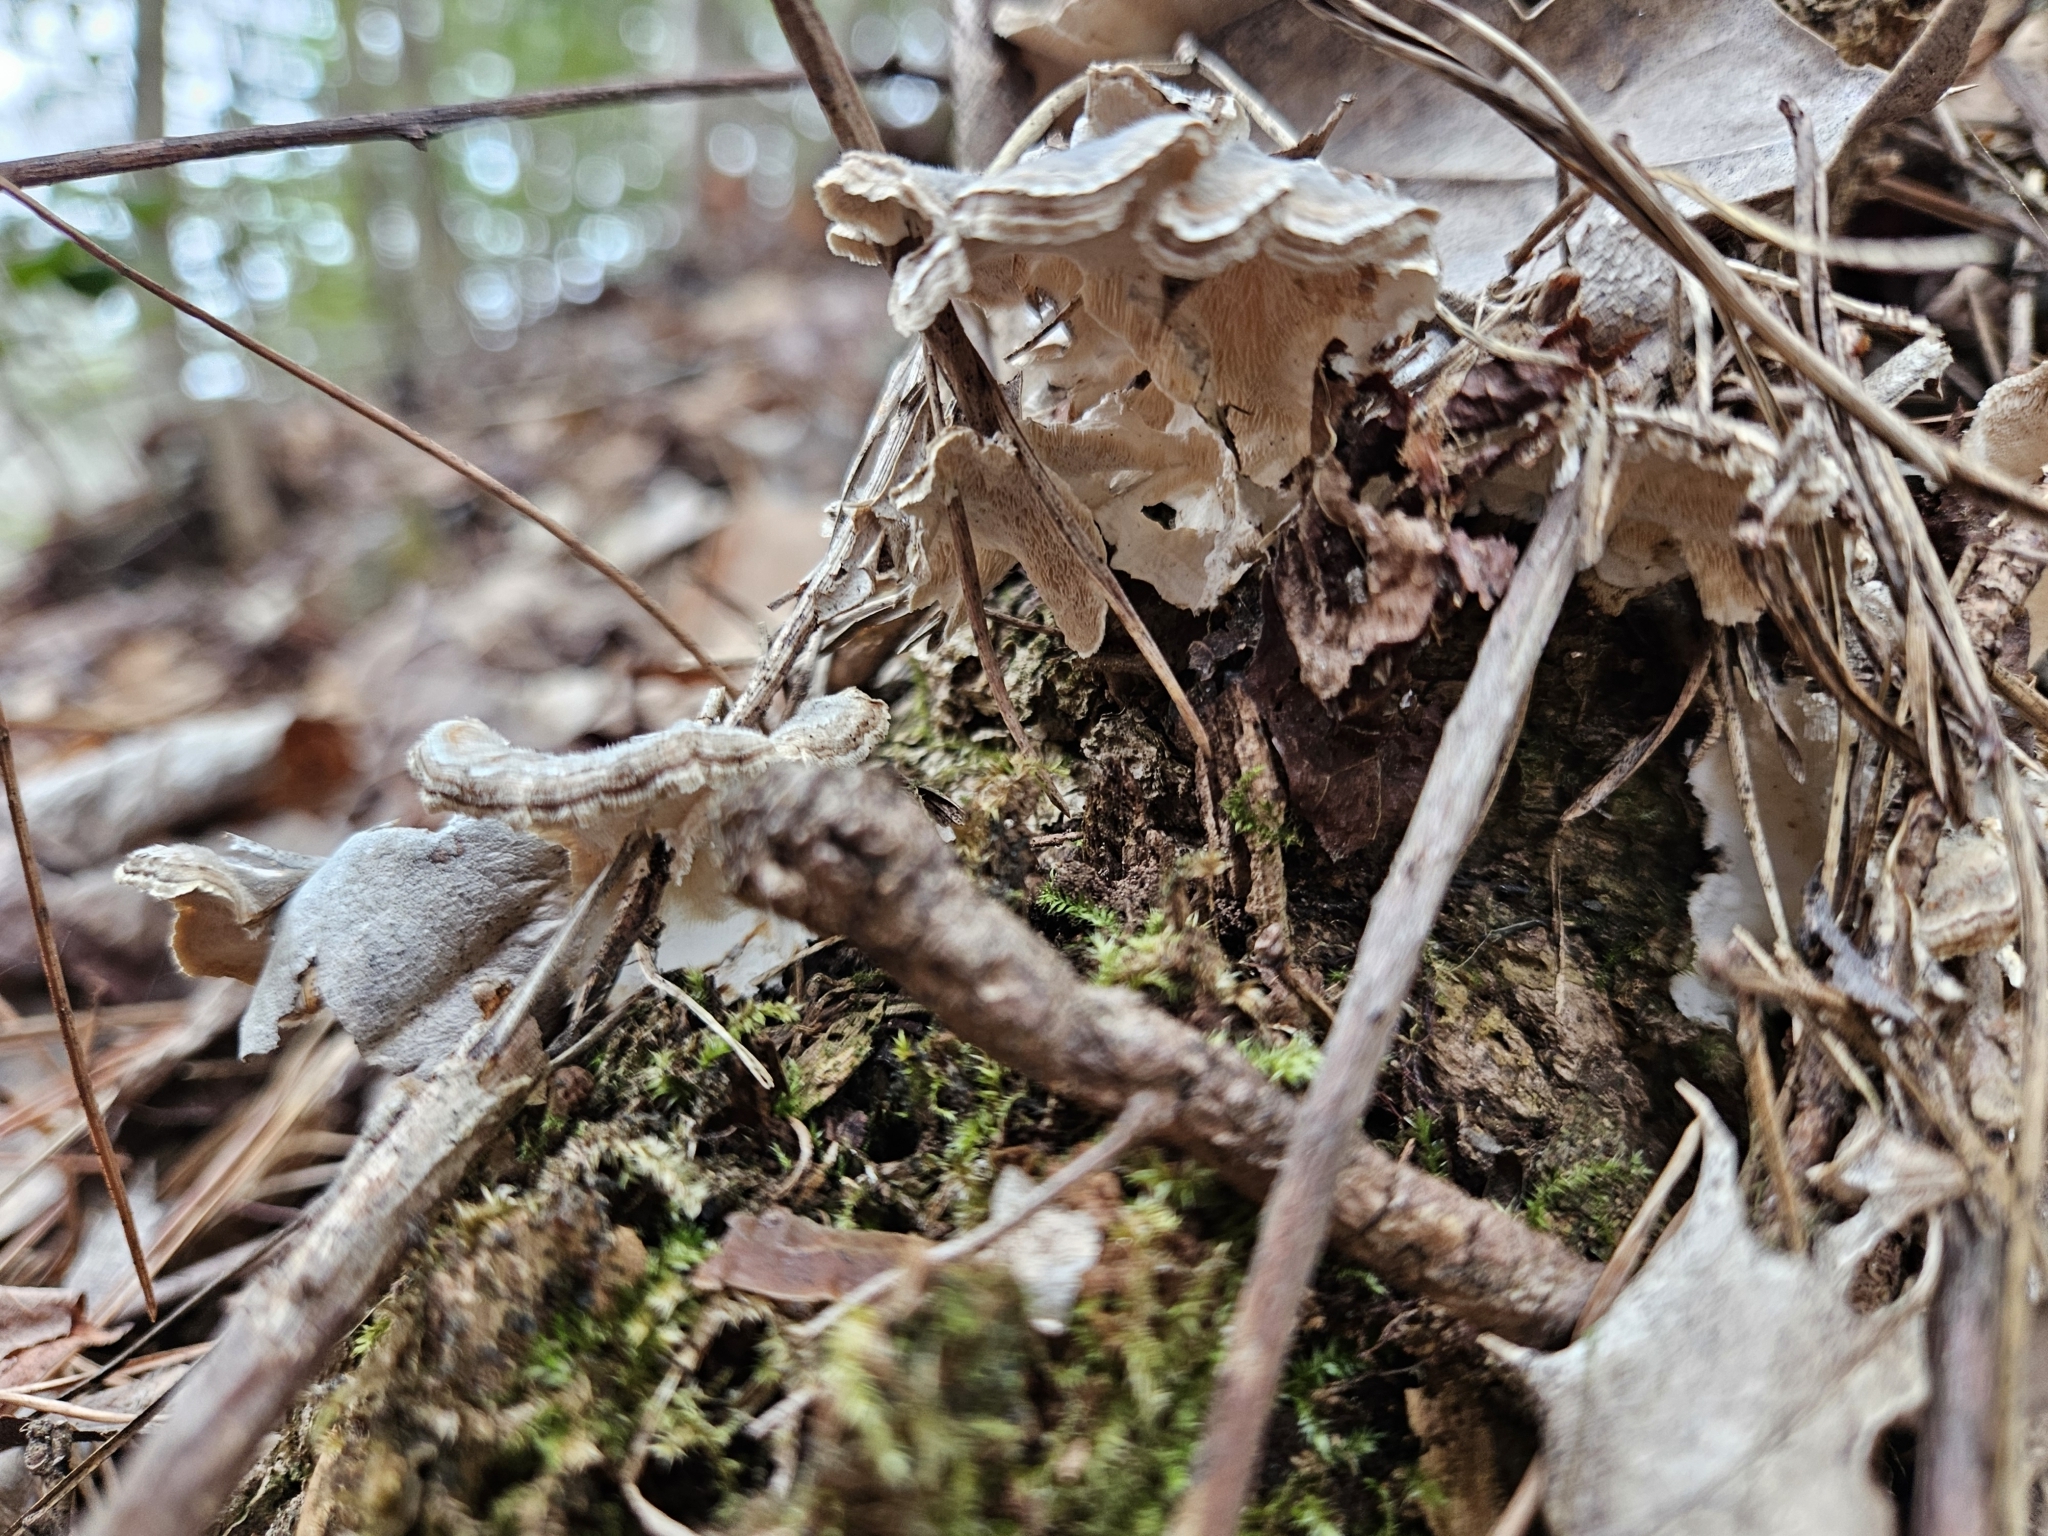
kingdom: Fungi
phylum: Basidiomycota
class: Agaricomycetes
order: Polyporales
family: Polyporaceae
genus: Trametes
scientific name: Trametes versicolor
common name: Turkeytail
